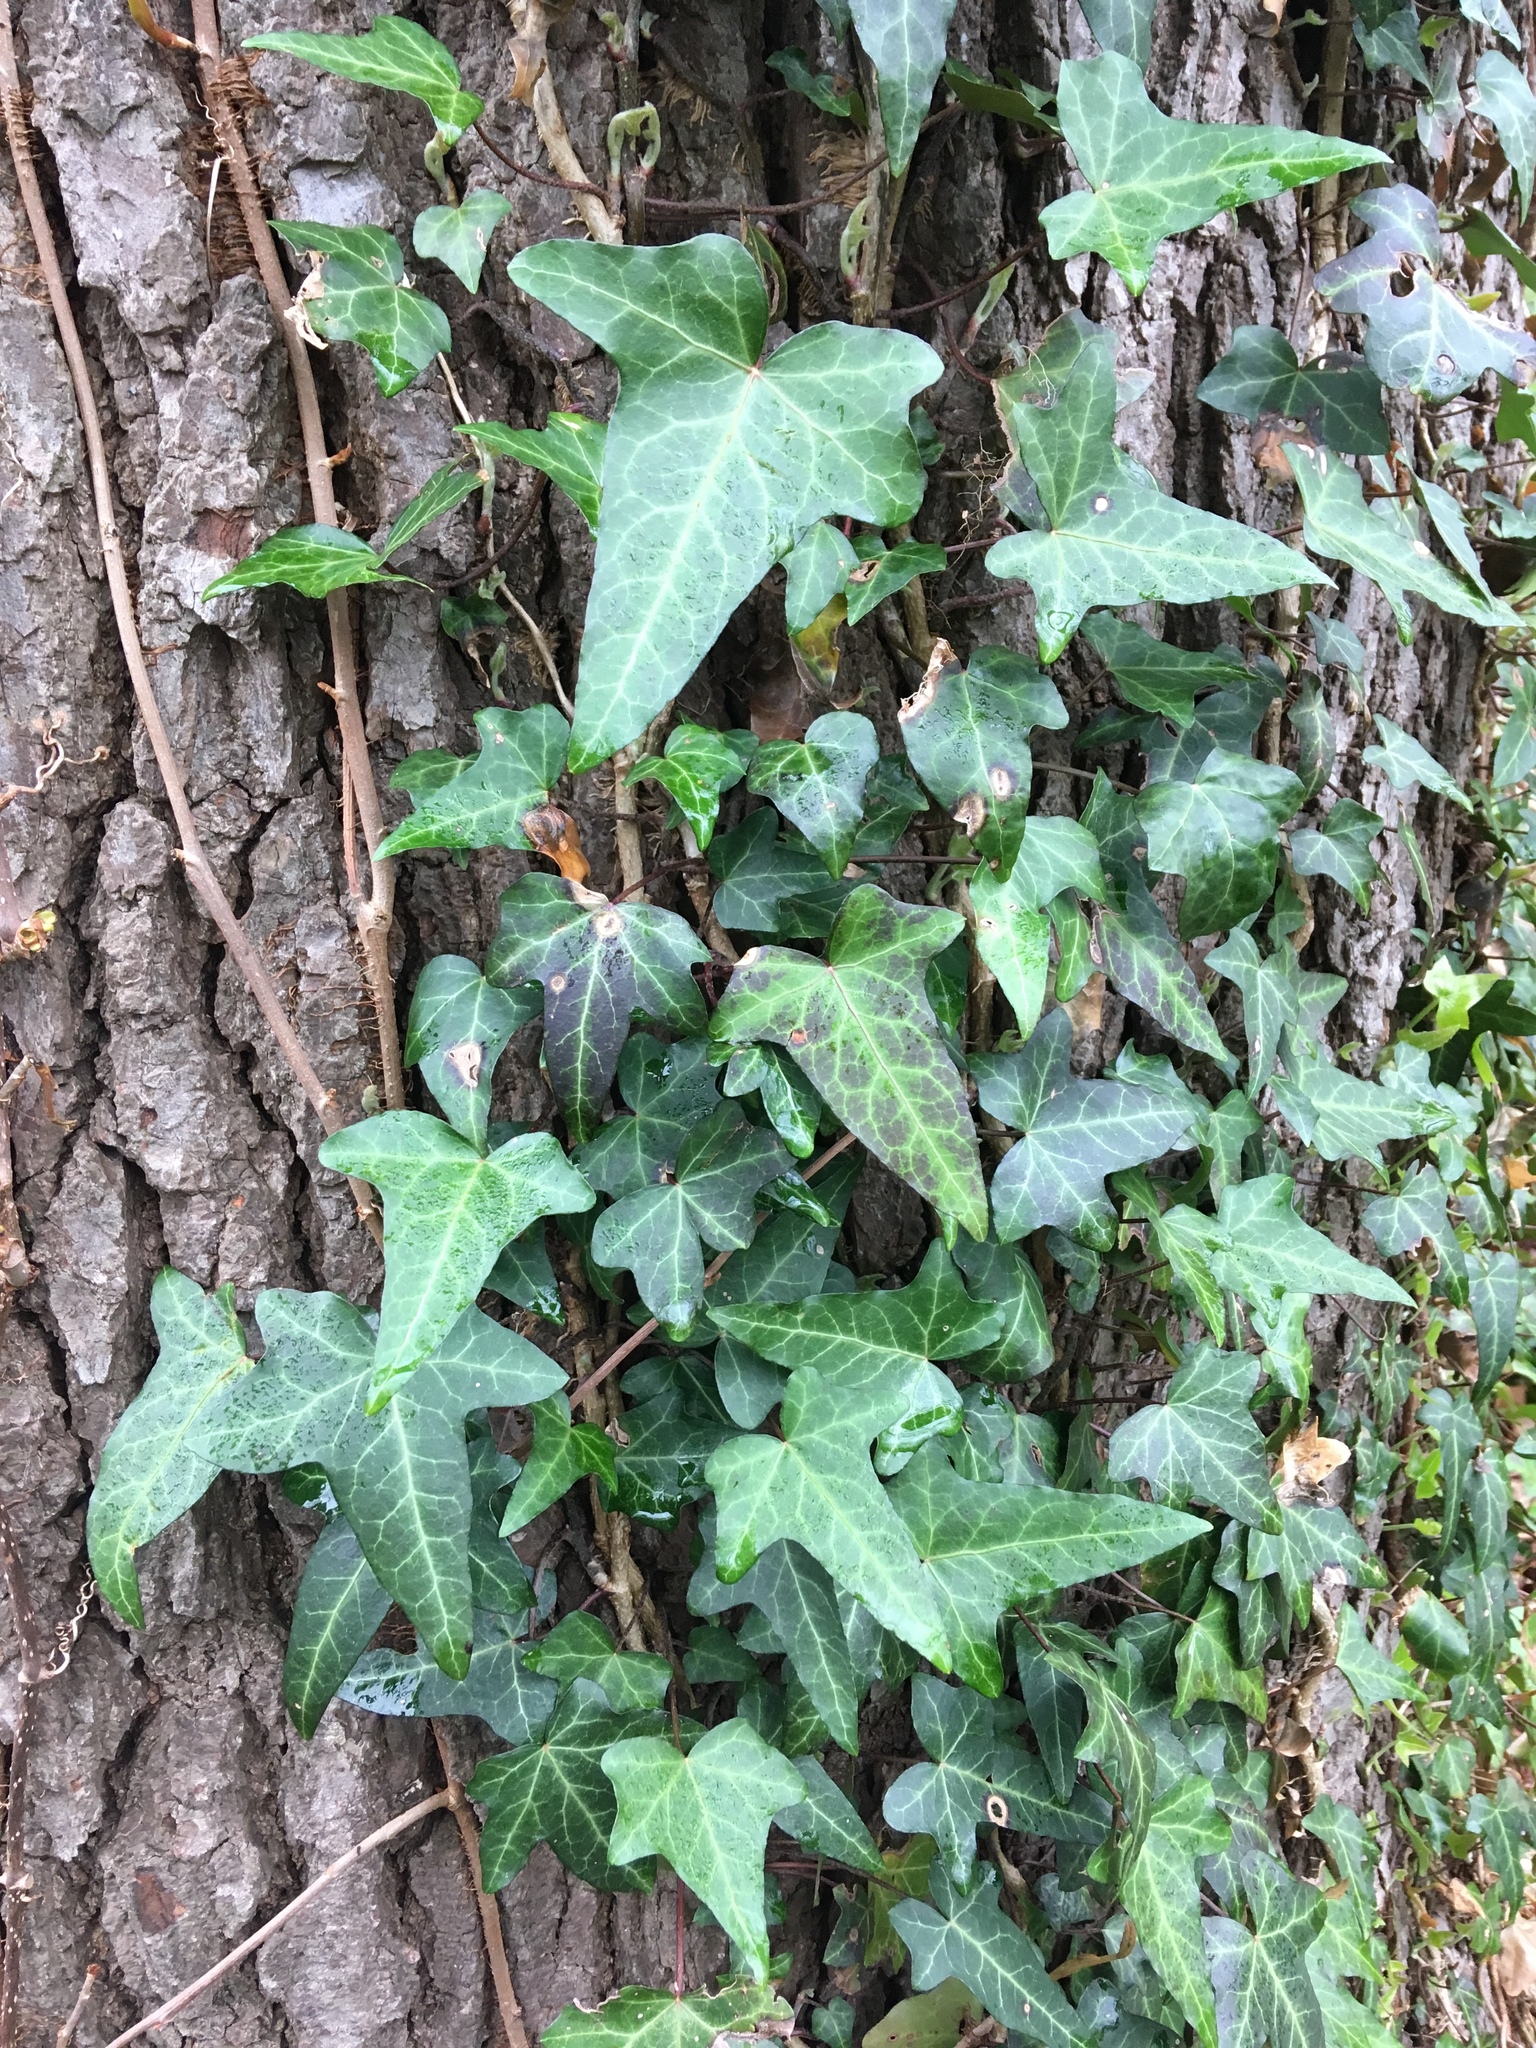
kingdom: Plantae
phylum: Tracheophyta
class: Magnoliopsida
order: Apiales
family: Araliaceae
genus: Hedera
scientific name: Hedera helix
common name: Ivy
